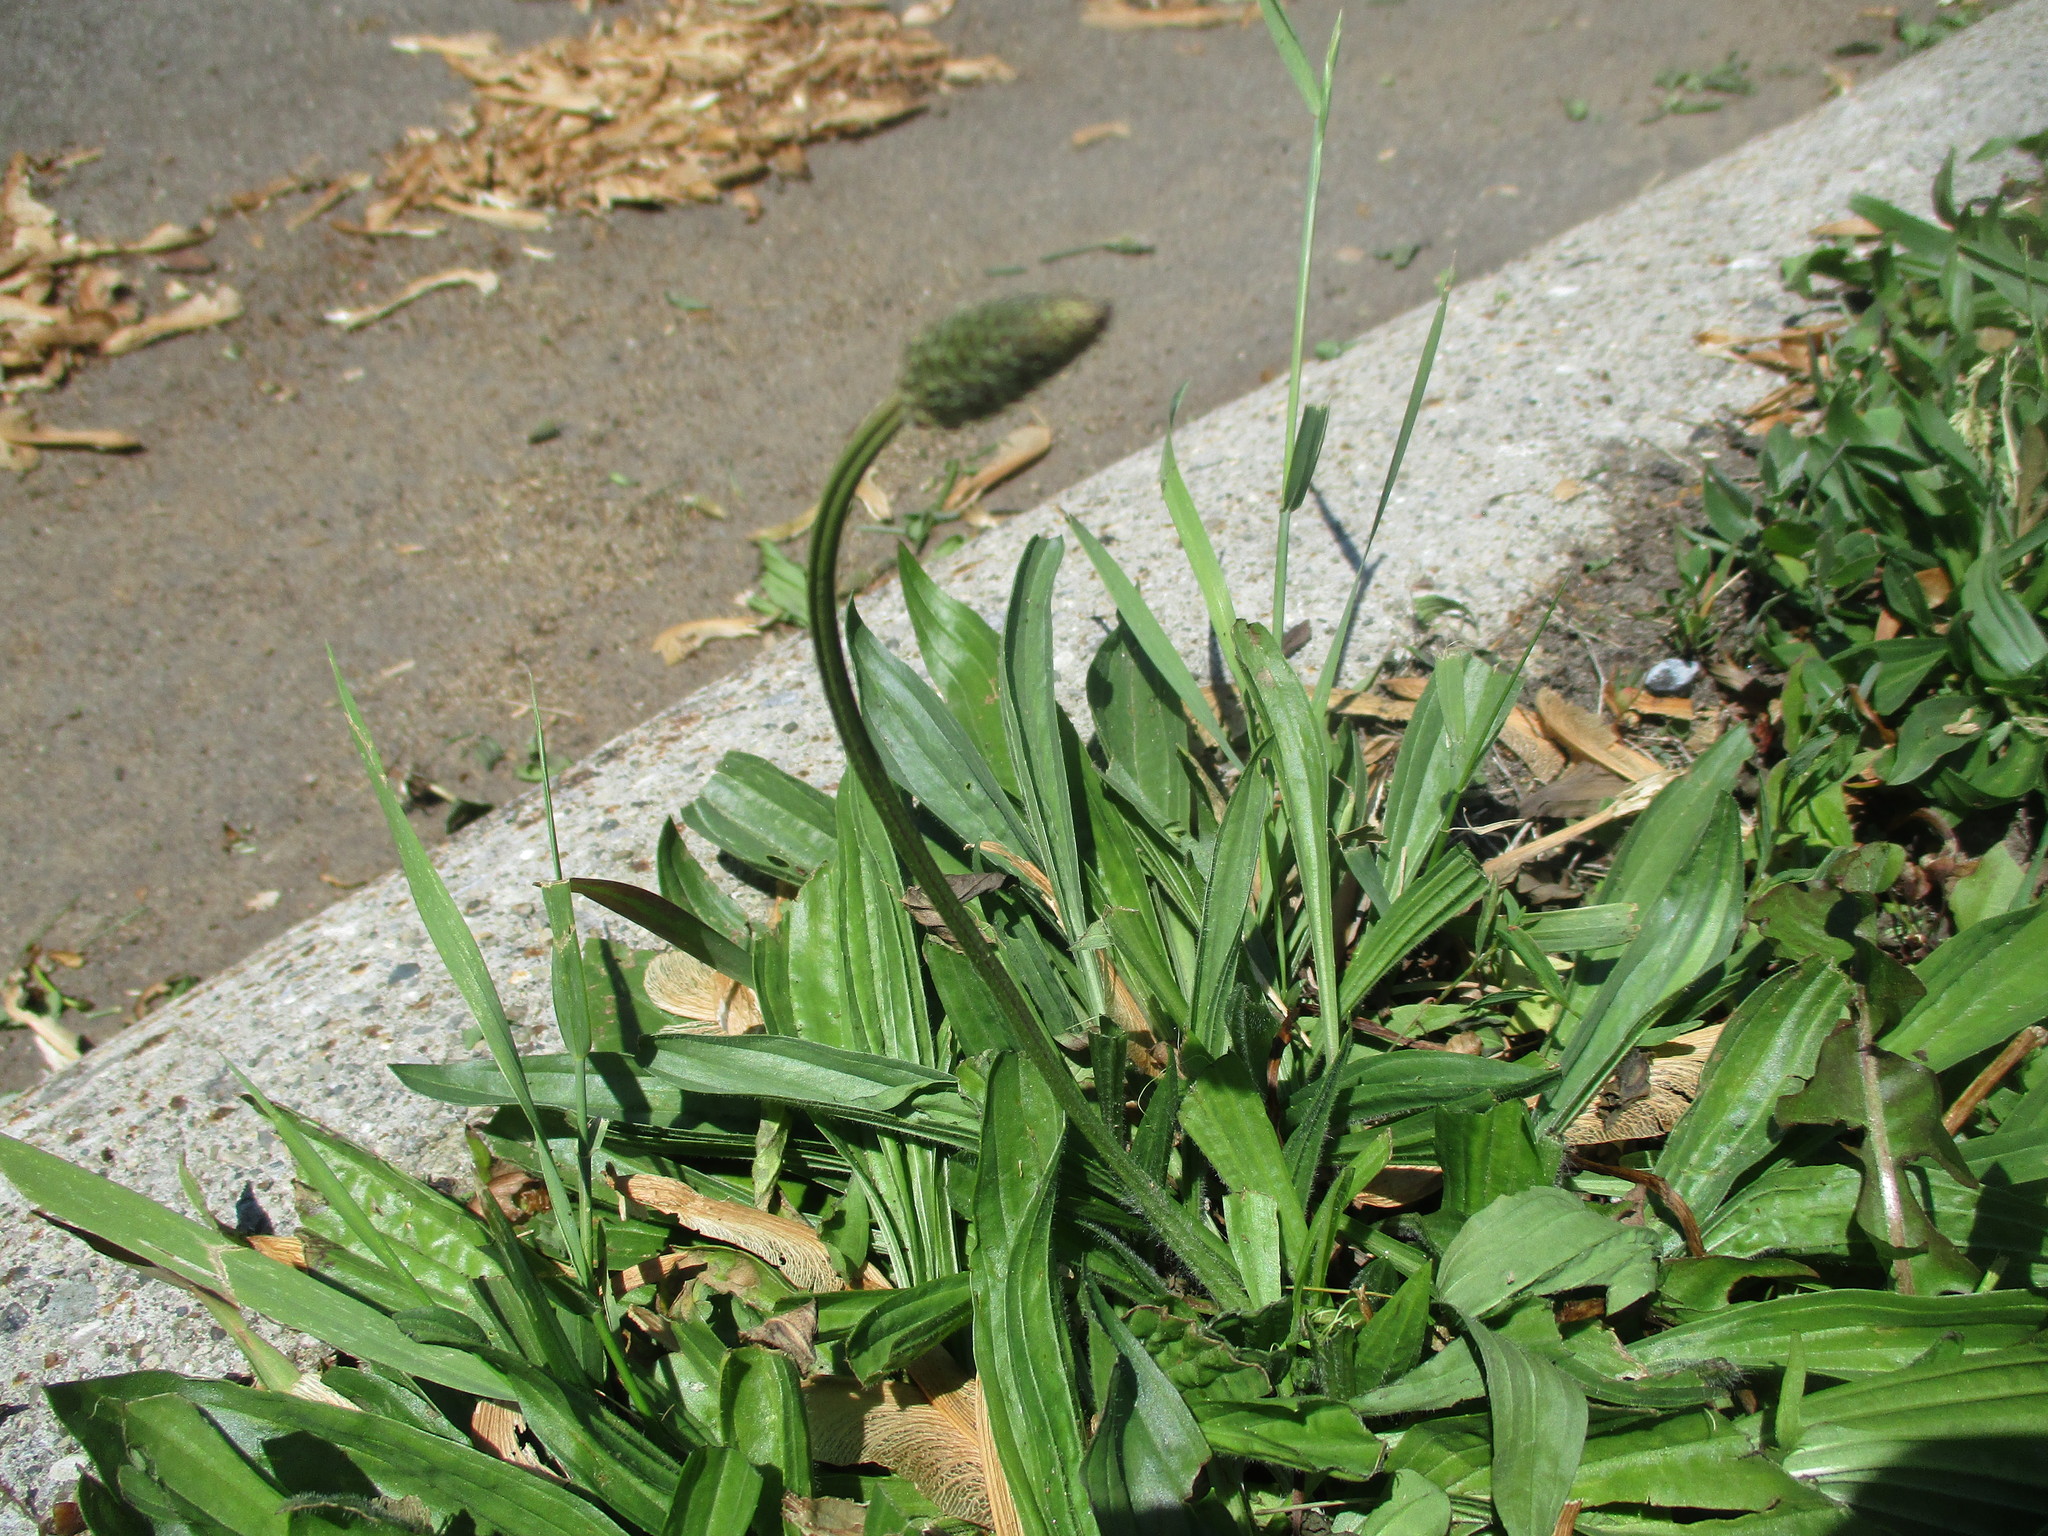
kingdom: Plantae
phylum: Tracheophyta
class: Magnoliopsida
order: Lamiales
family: Plantaginaceae
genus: Plantago
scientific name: Plantago lanceolata
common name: Ribwort plantain
